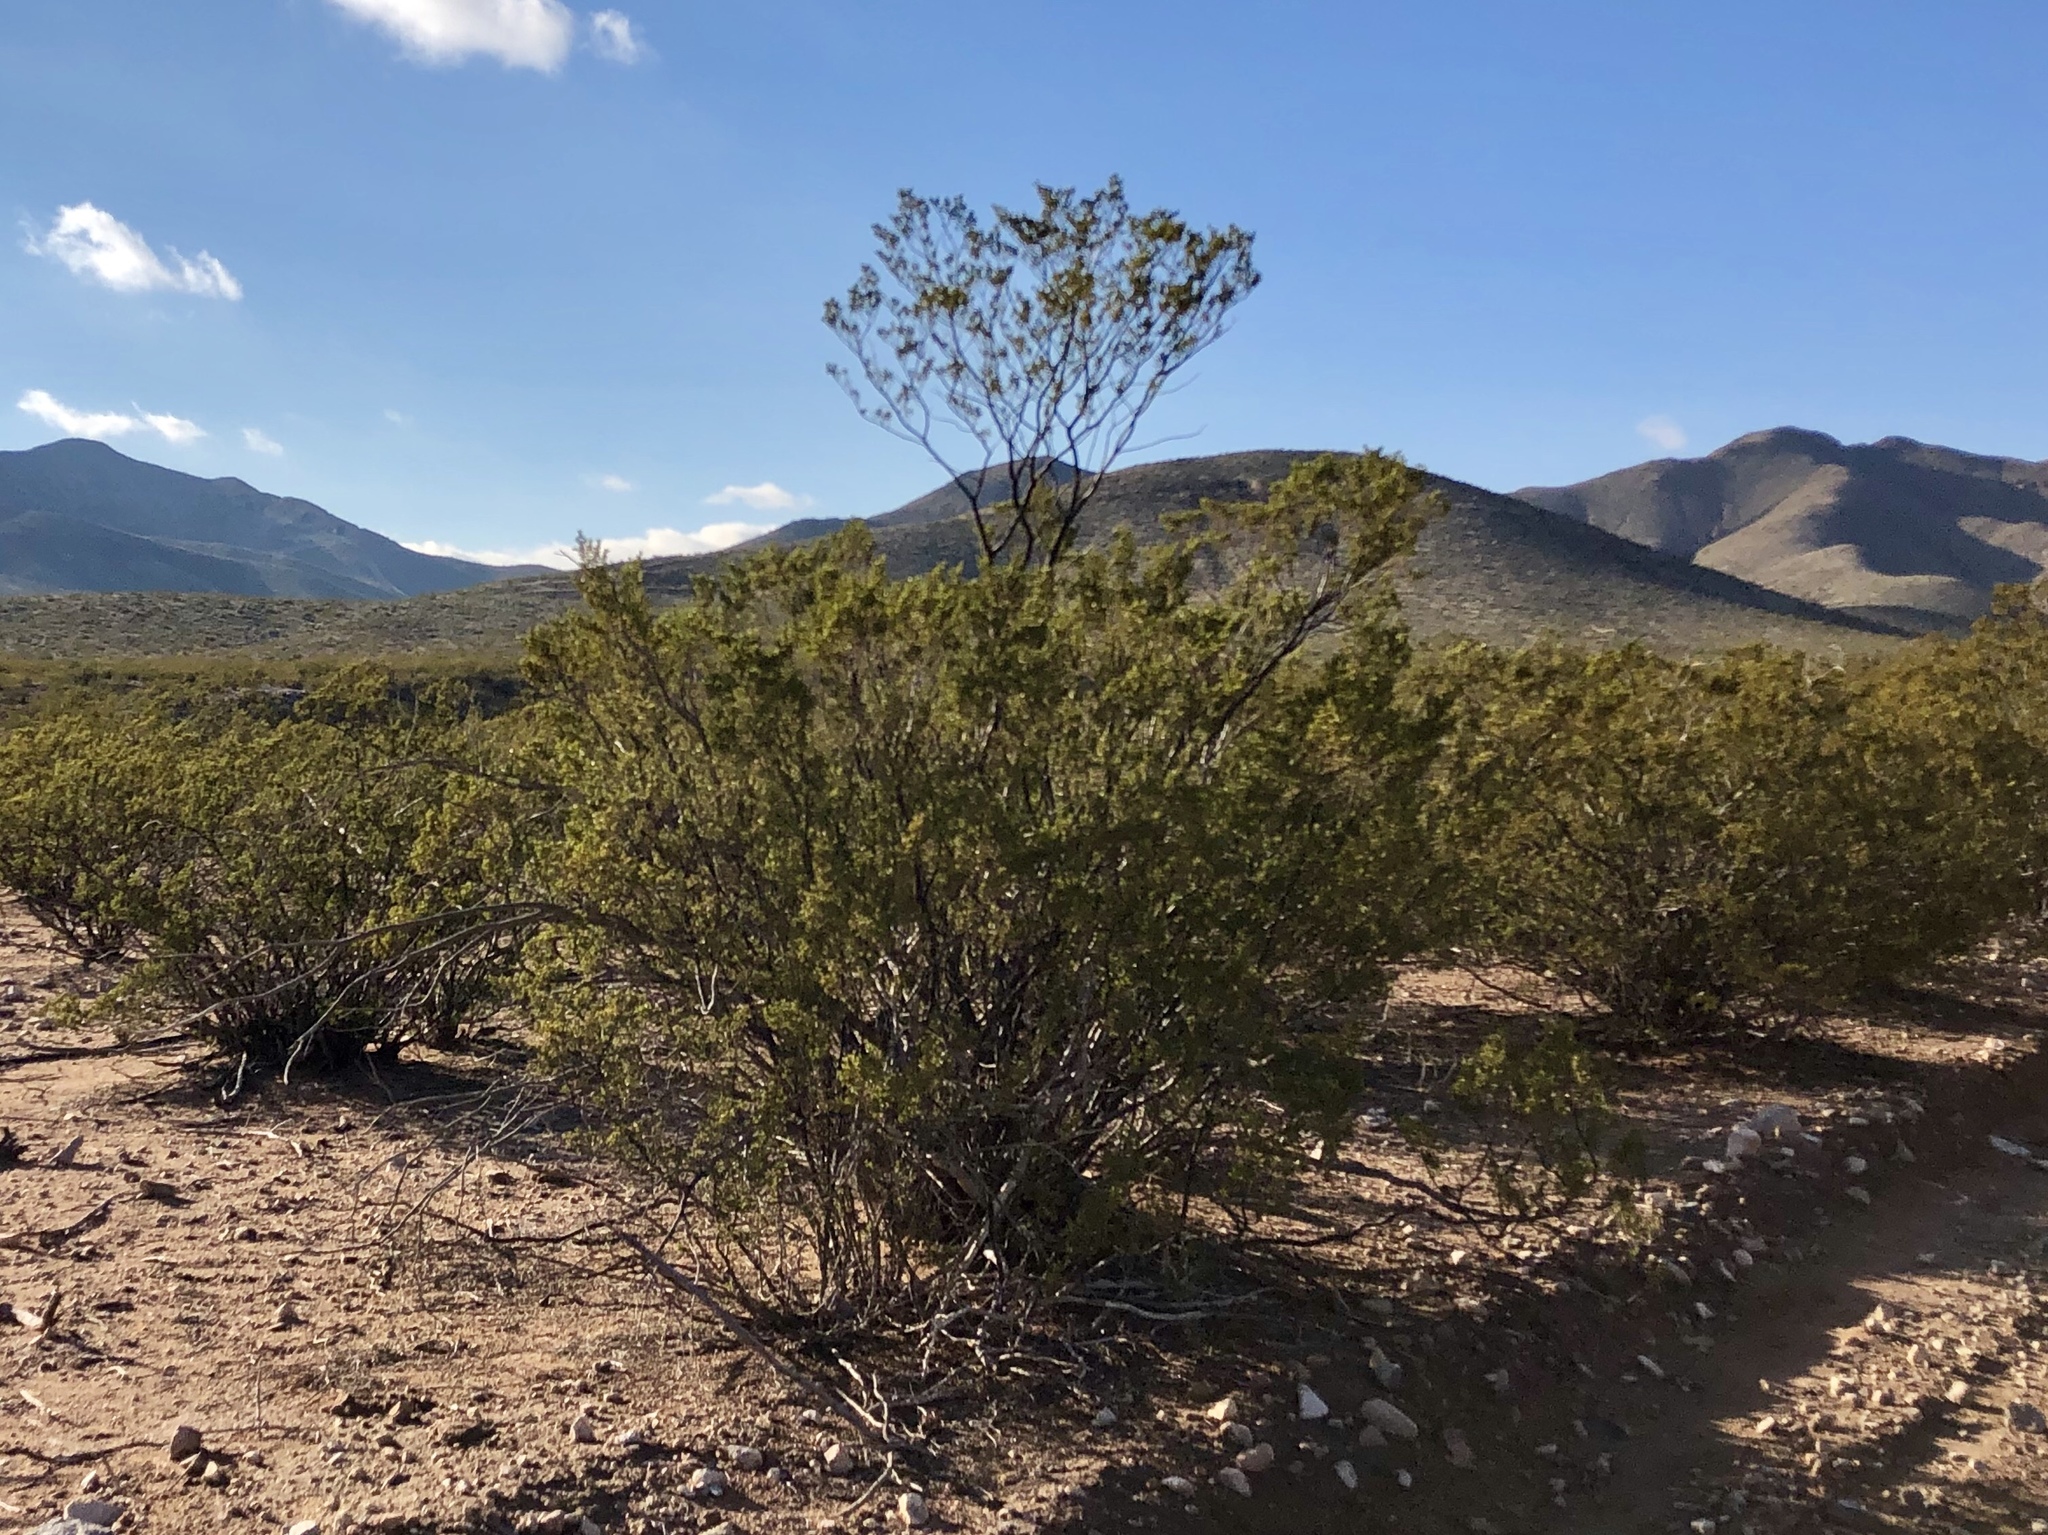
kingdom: Plantae
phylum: Tracheophyta
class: Magnoliopsida
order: Zygophyllales
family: Zygophyllaceae
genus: Larrea
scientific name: Larrea tridentata
